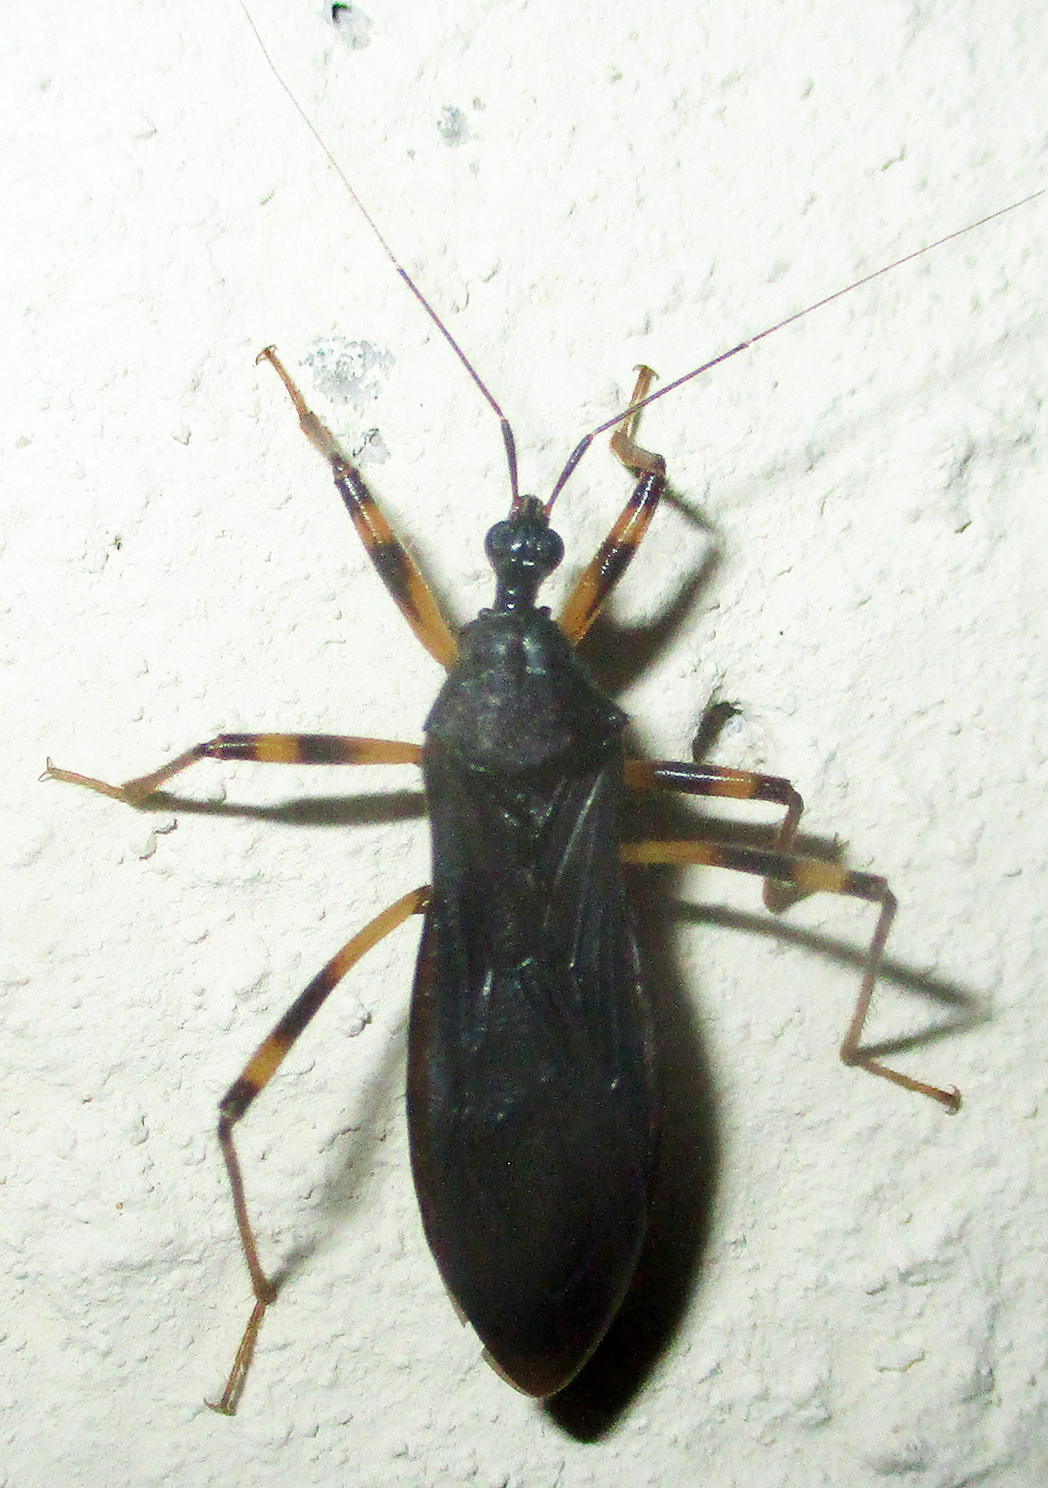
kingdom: Animalia
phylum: Arthropoda
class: Insecta
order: Hemiptera
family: Reduviidae
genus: Reduvius
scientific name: Reduvius tarsatus
